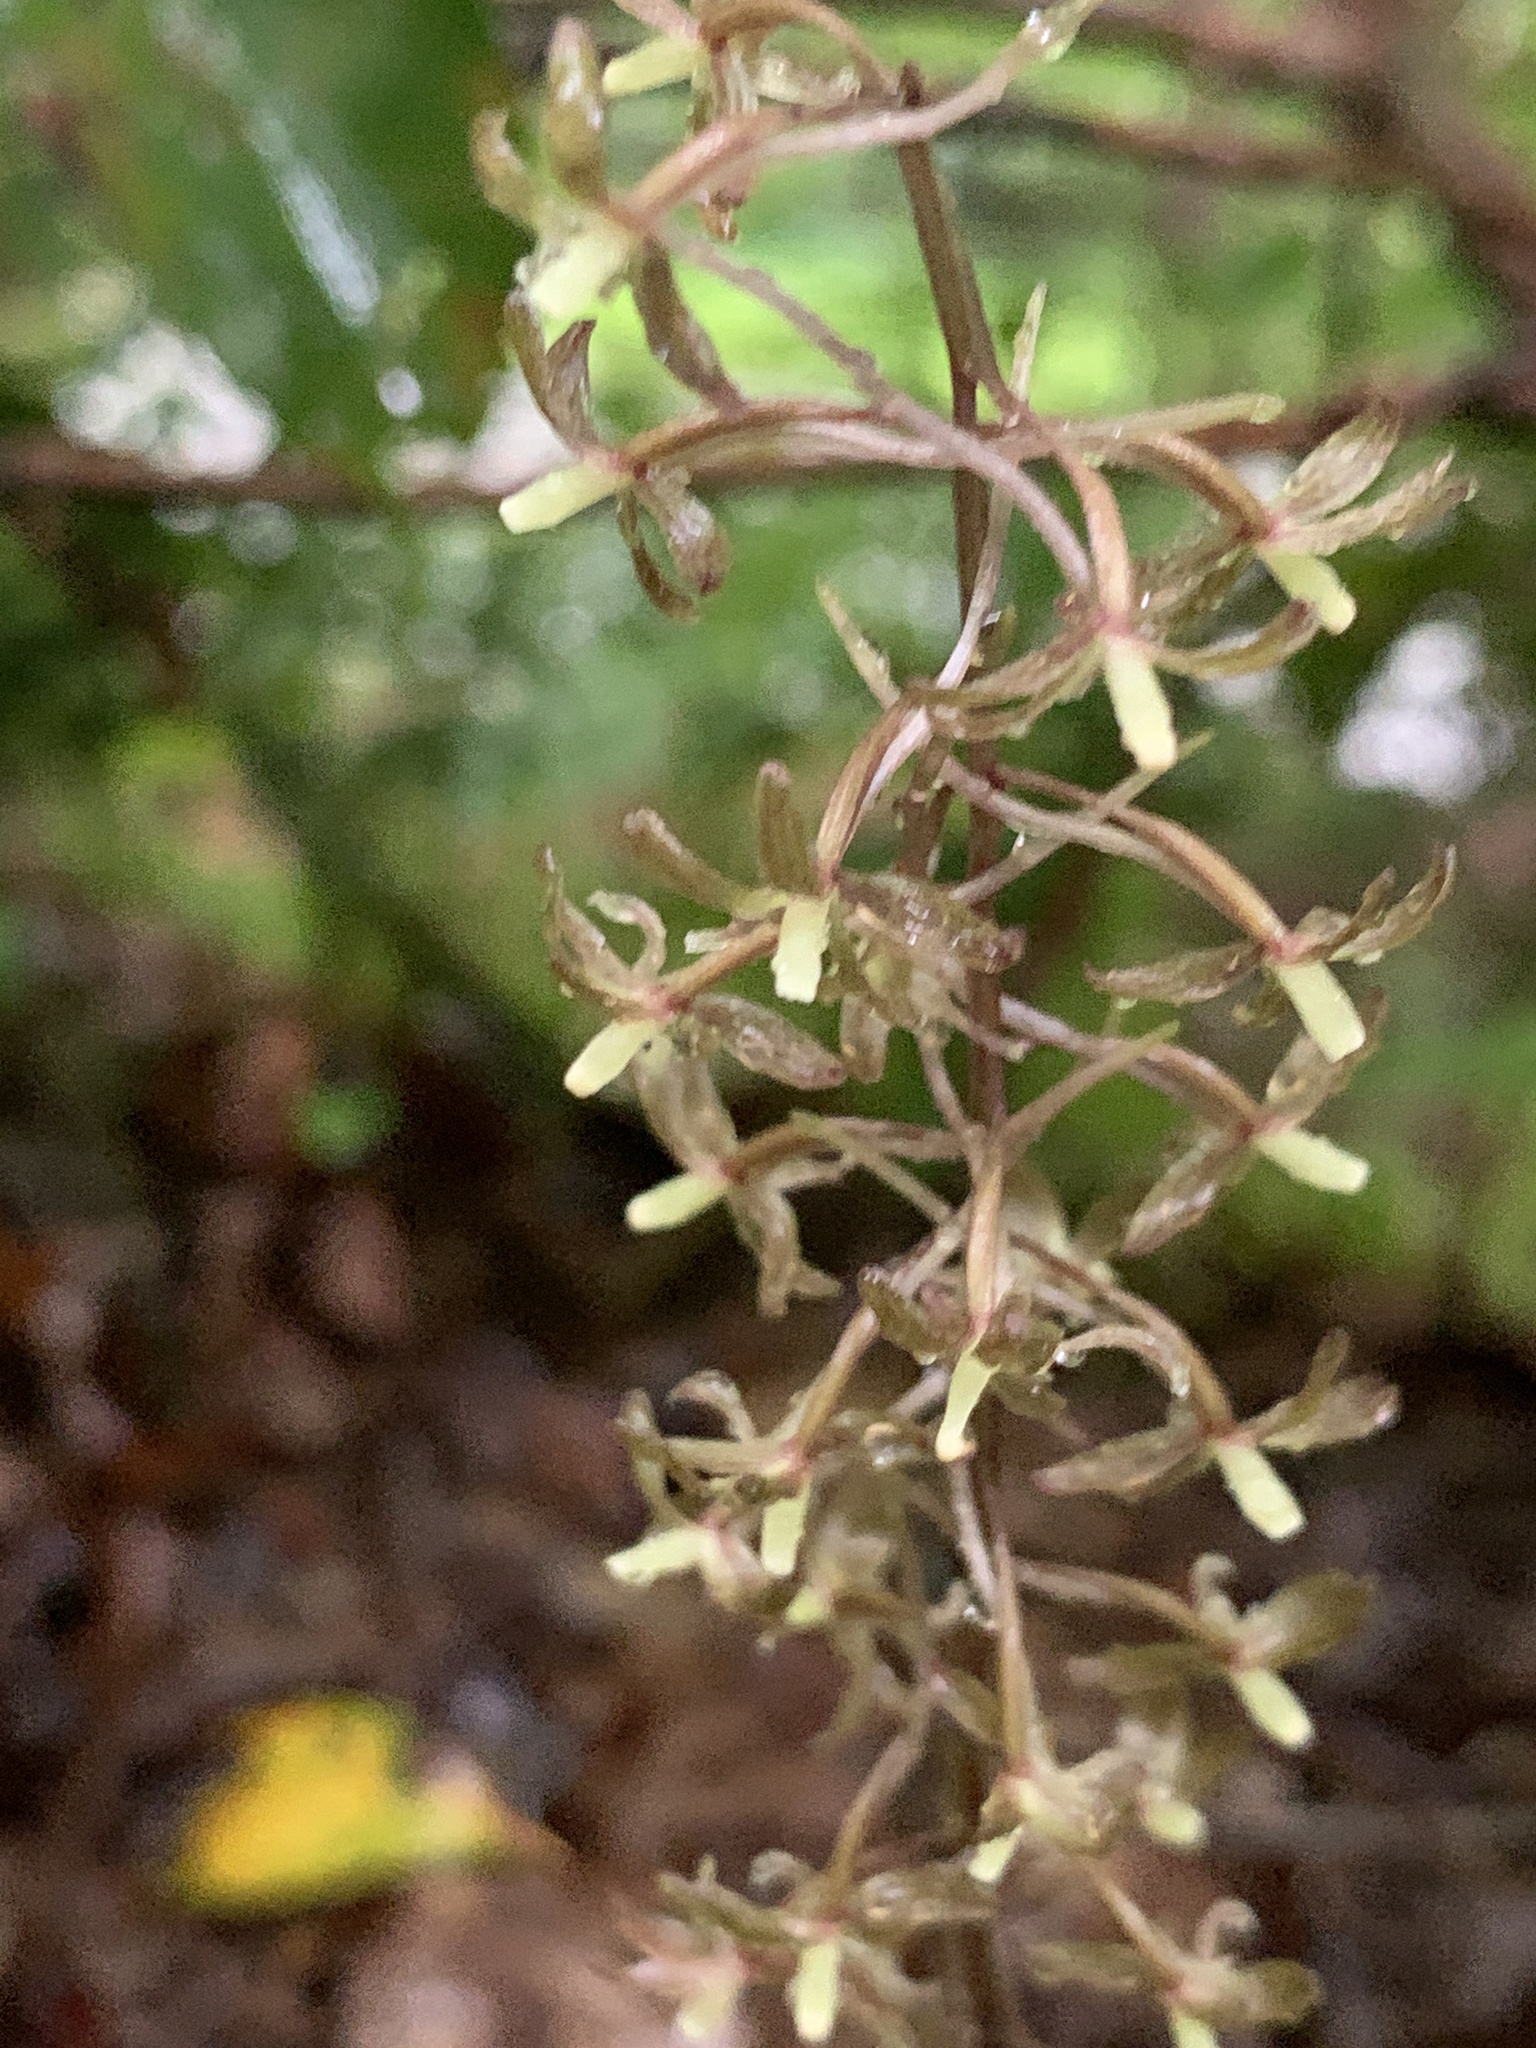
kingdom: Plantae
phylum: Tracheophyta
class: Liliopsida
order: Asparagales
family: Orchidaceae
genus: Tipularia
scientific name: Tipularia discolor
